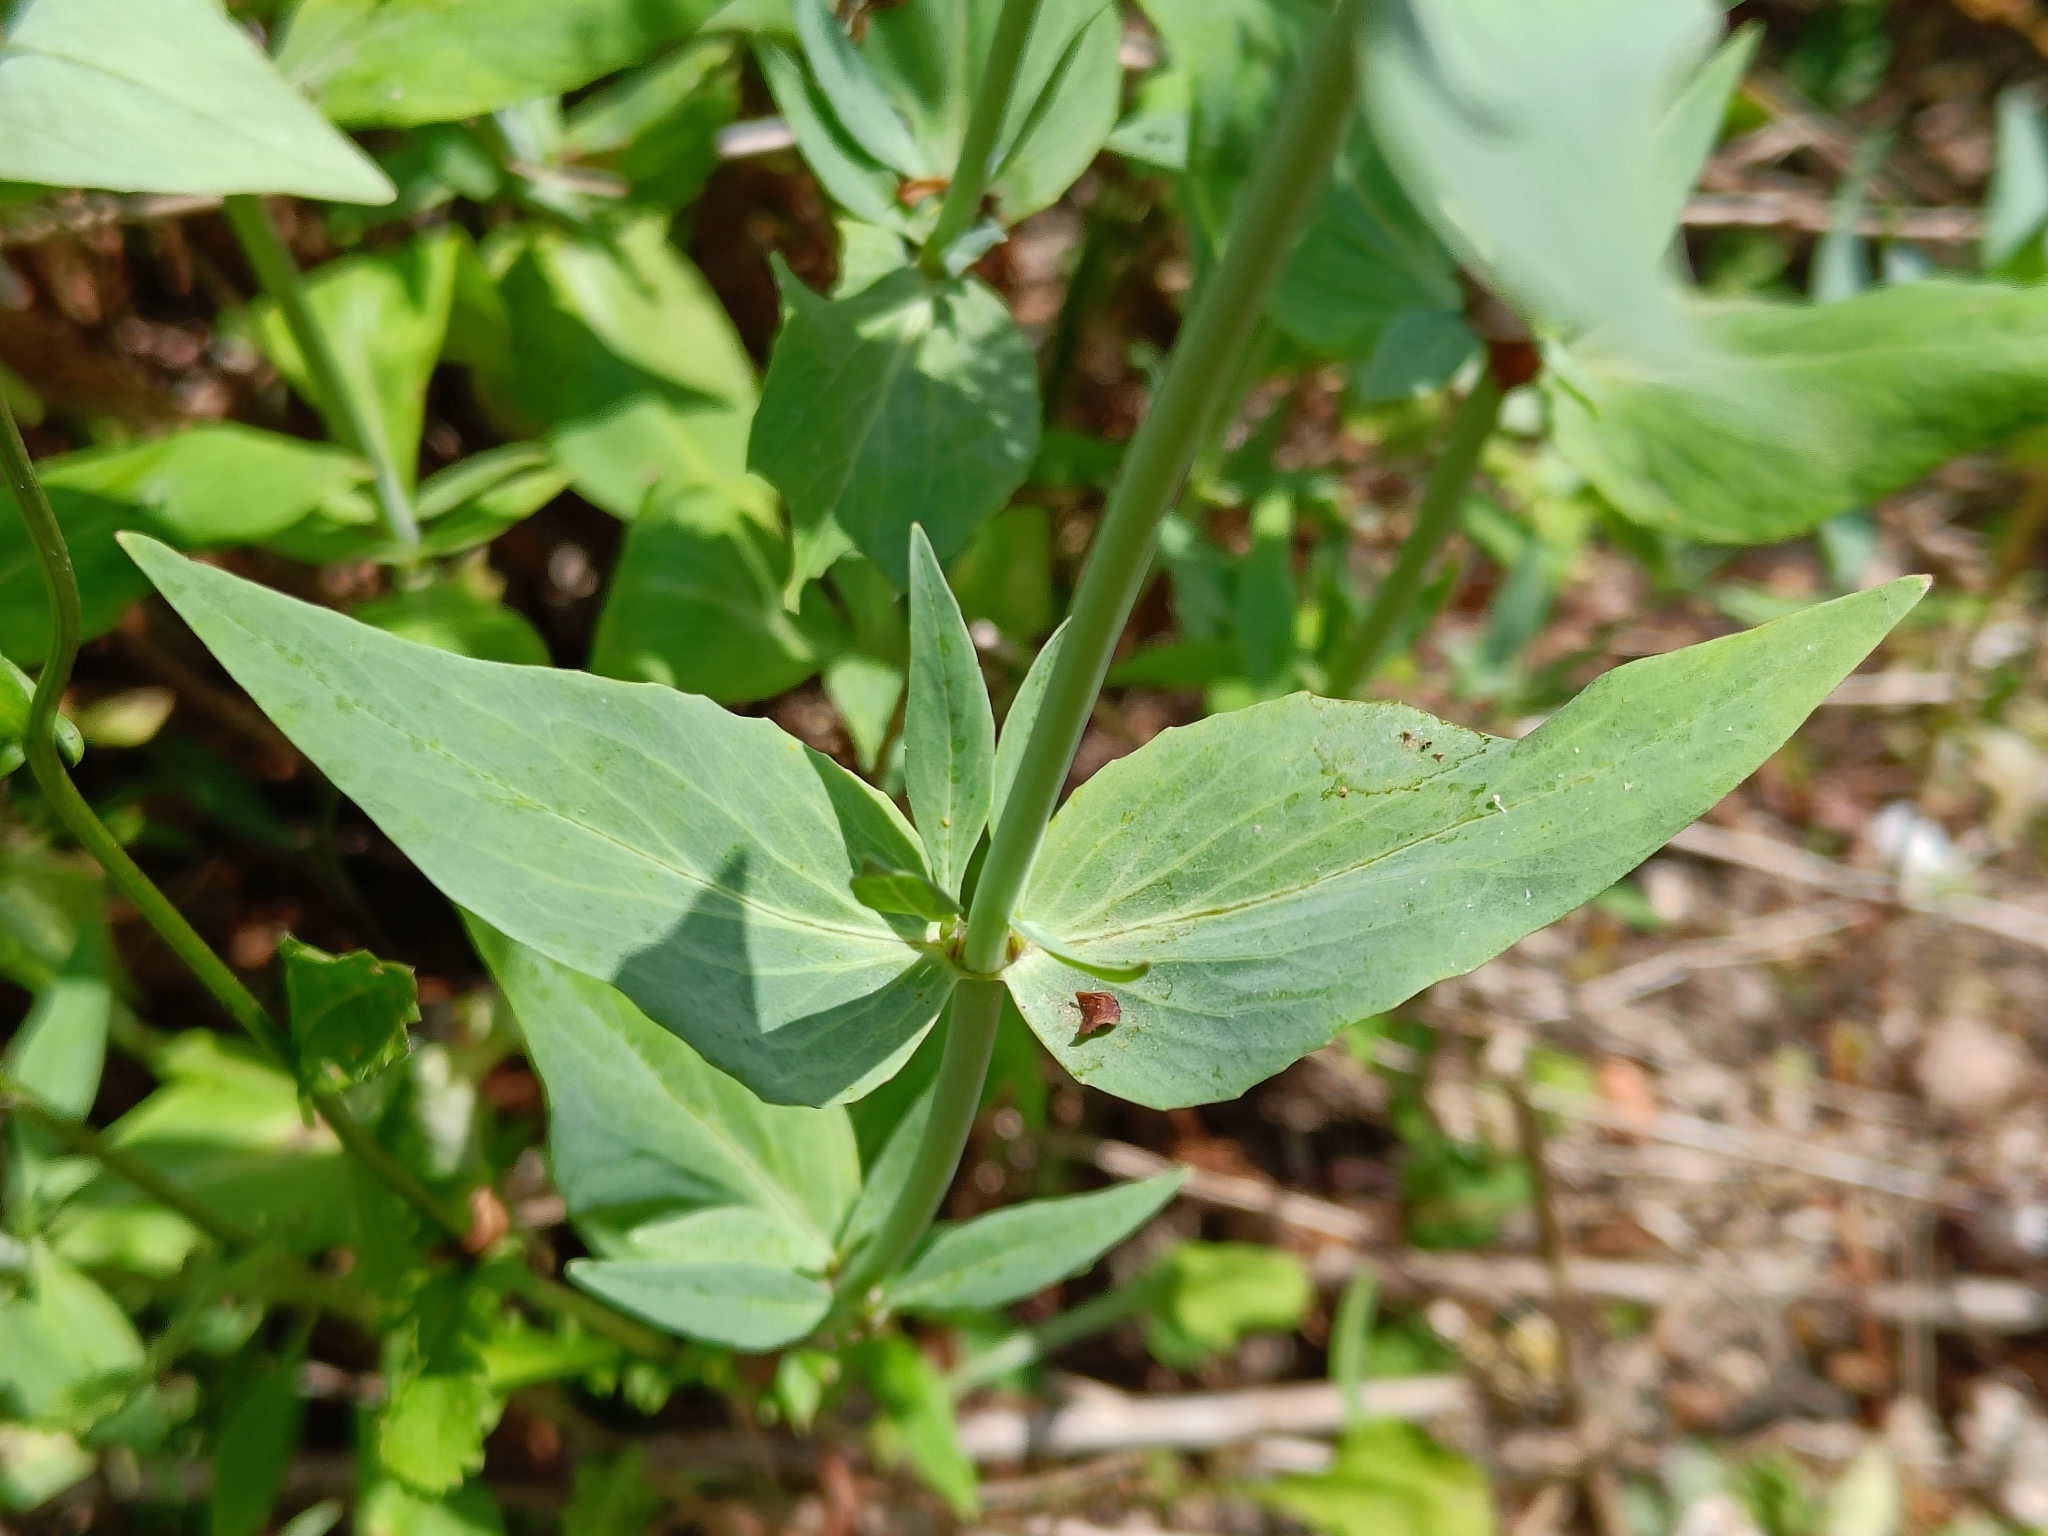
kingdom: Plantae
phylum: Tracheophyta
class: Magnoliopsida
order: Dipsacales
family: Caprifoliaceae
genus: Centranthus
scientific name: Centranthus ruber
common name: Red valerian
